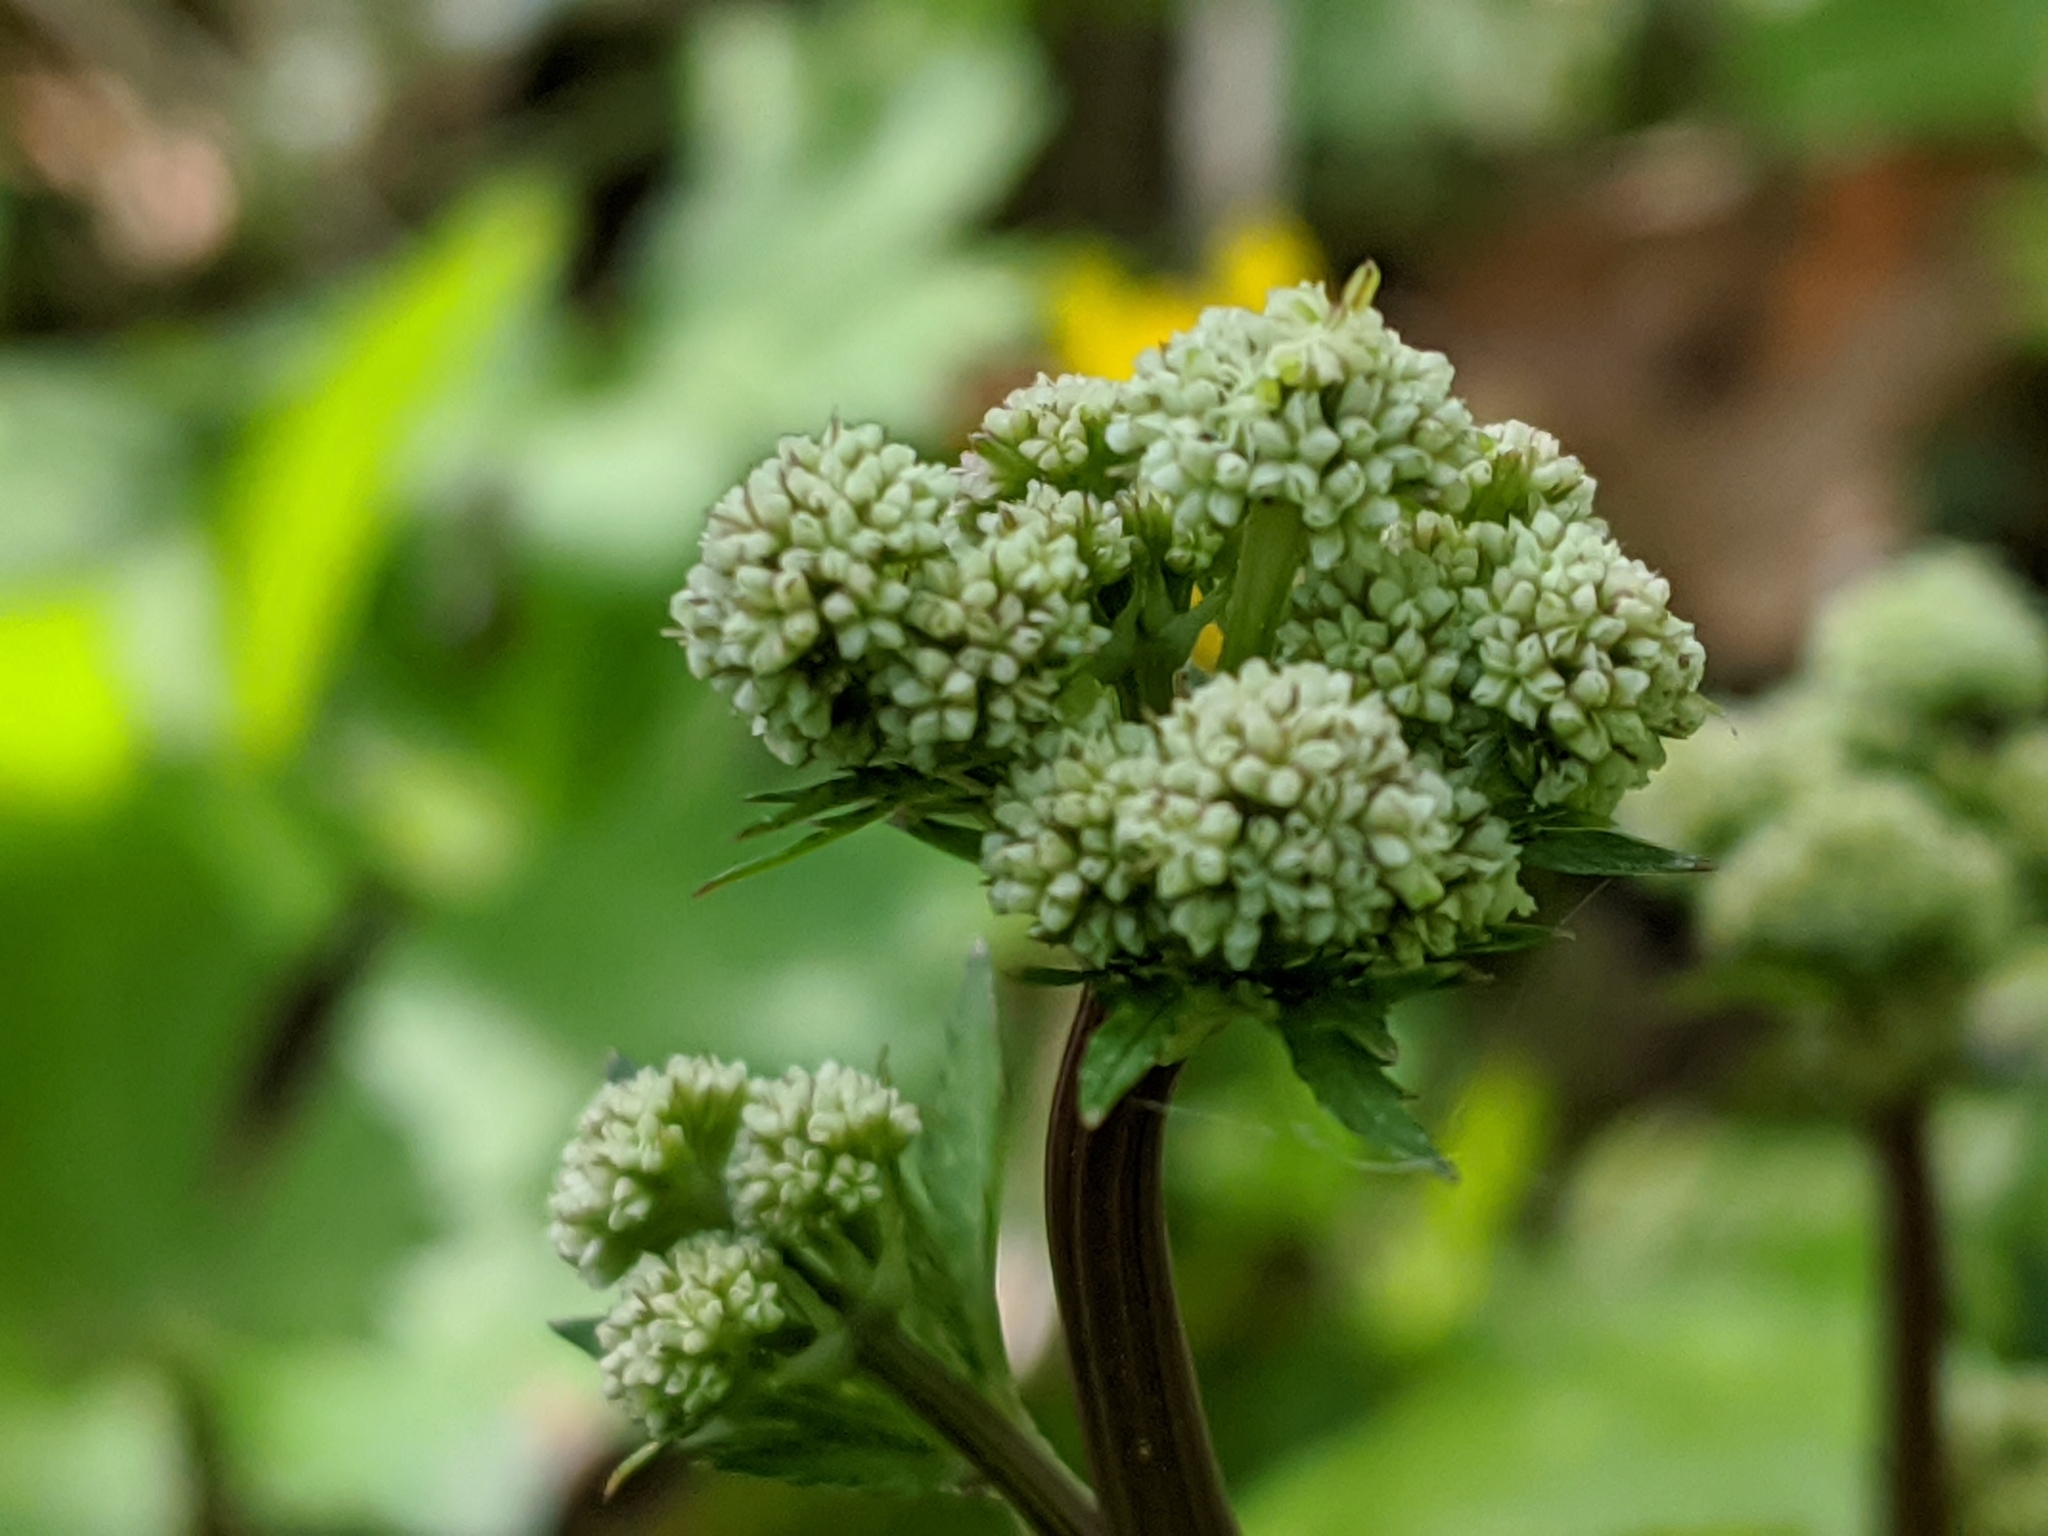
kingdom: Plantae
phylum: Tracheophyta
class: Magnoliopsida
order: Apiales
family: Apiaceae
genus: Sanicula
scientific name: Sanicula europaea
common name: Sanicle
